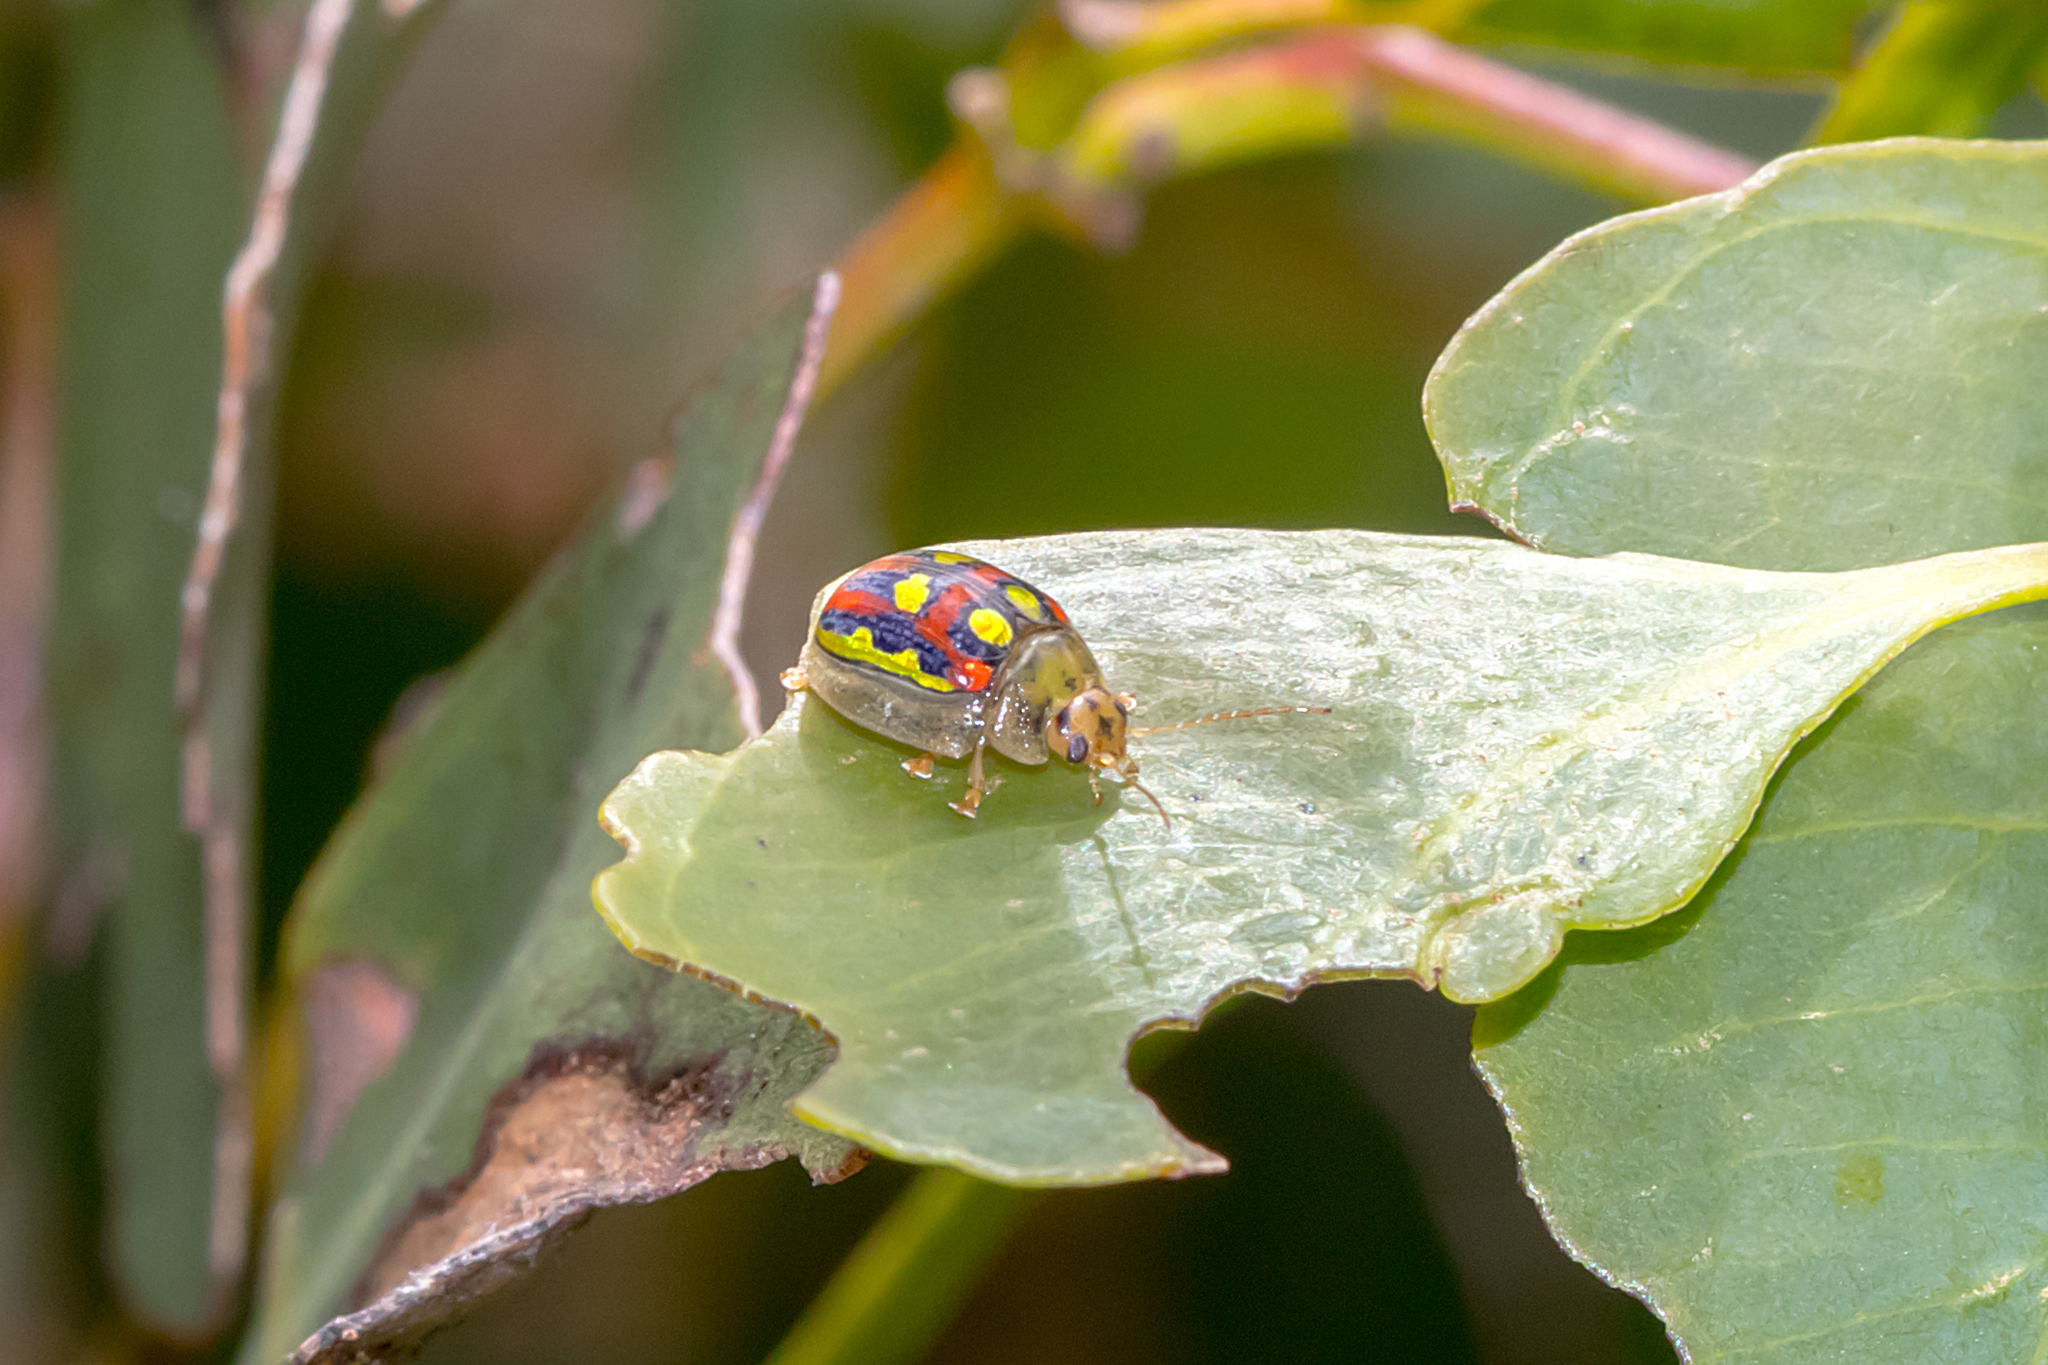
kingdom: Animalia
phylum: Arthropoda
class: Insecta
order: Coleoptera
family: Chrysomelidae
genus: Paropsisterna
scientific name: Paropsisterna
